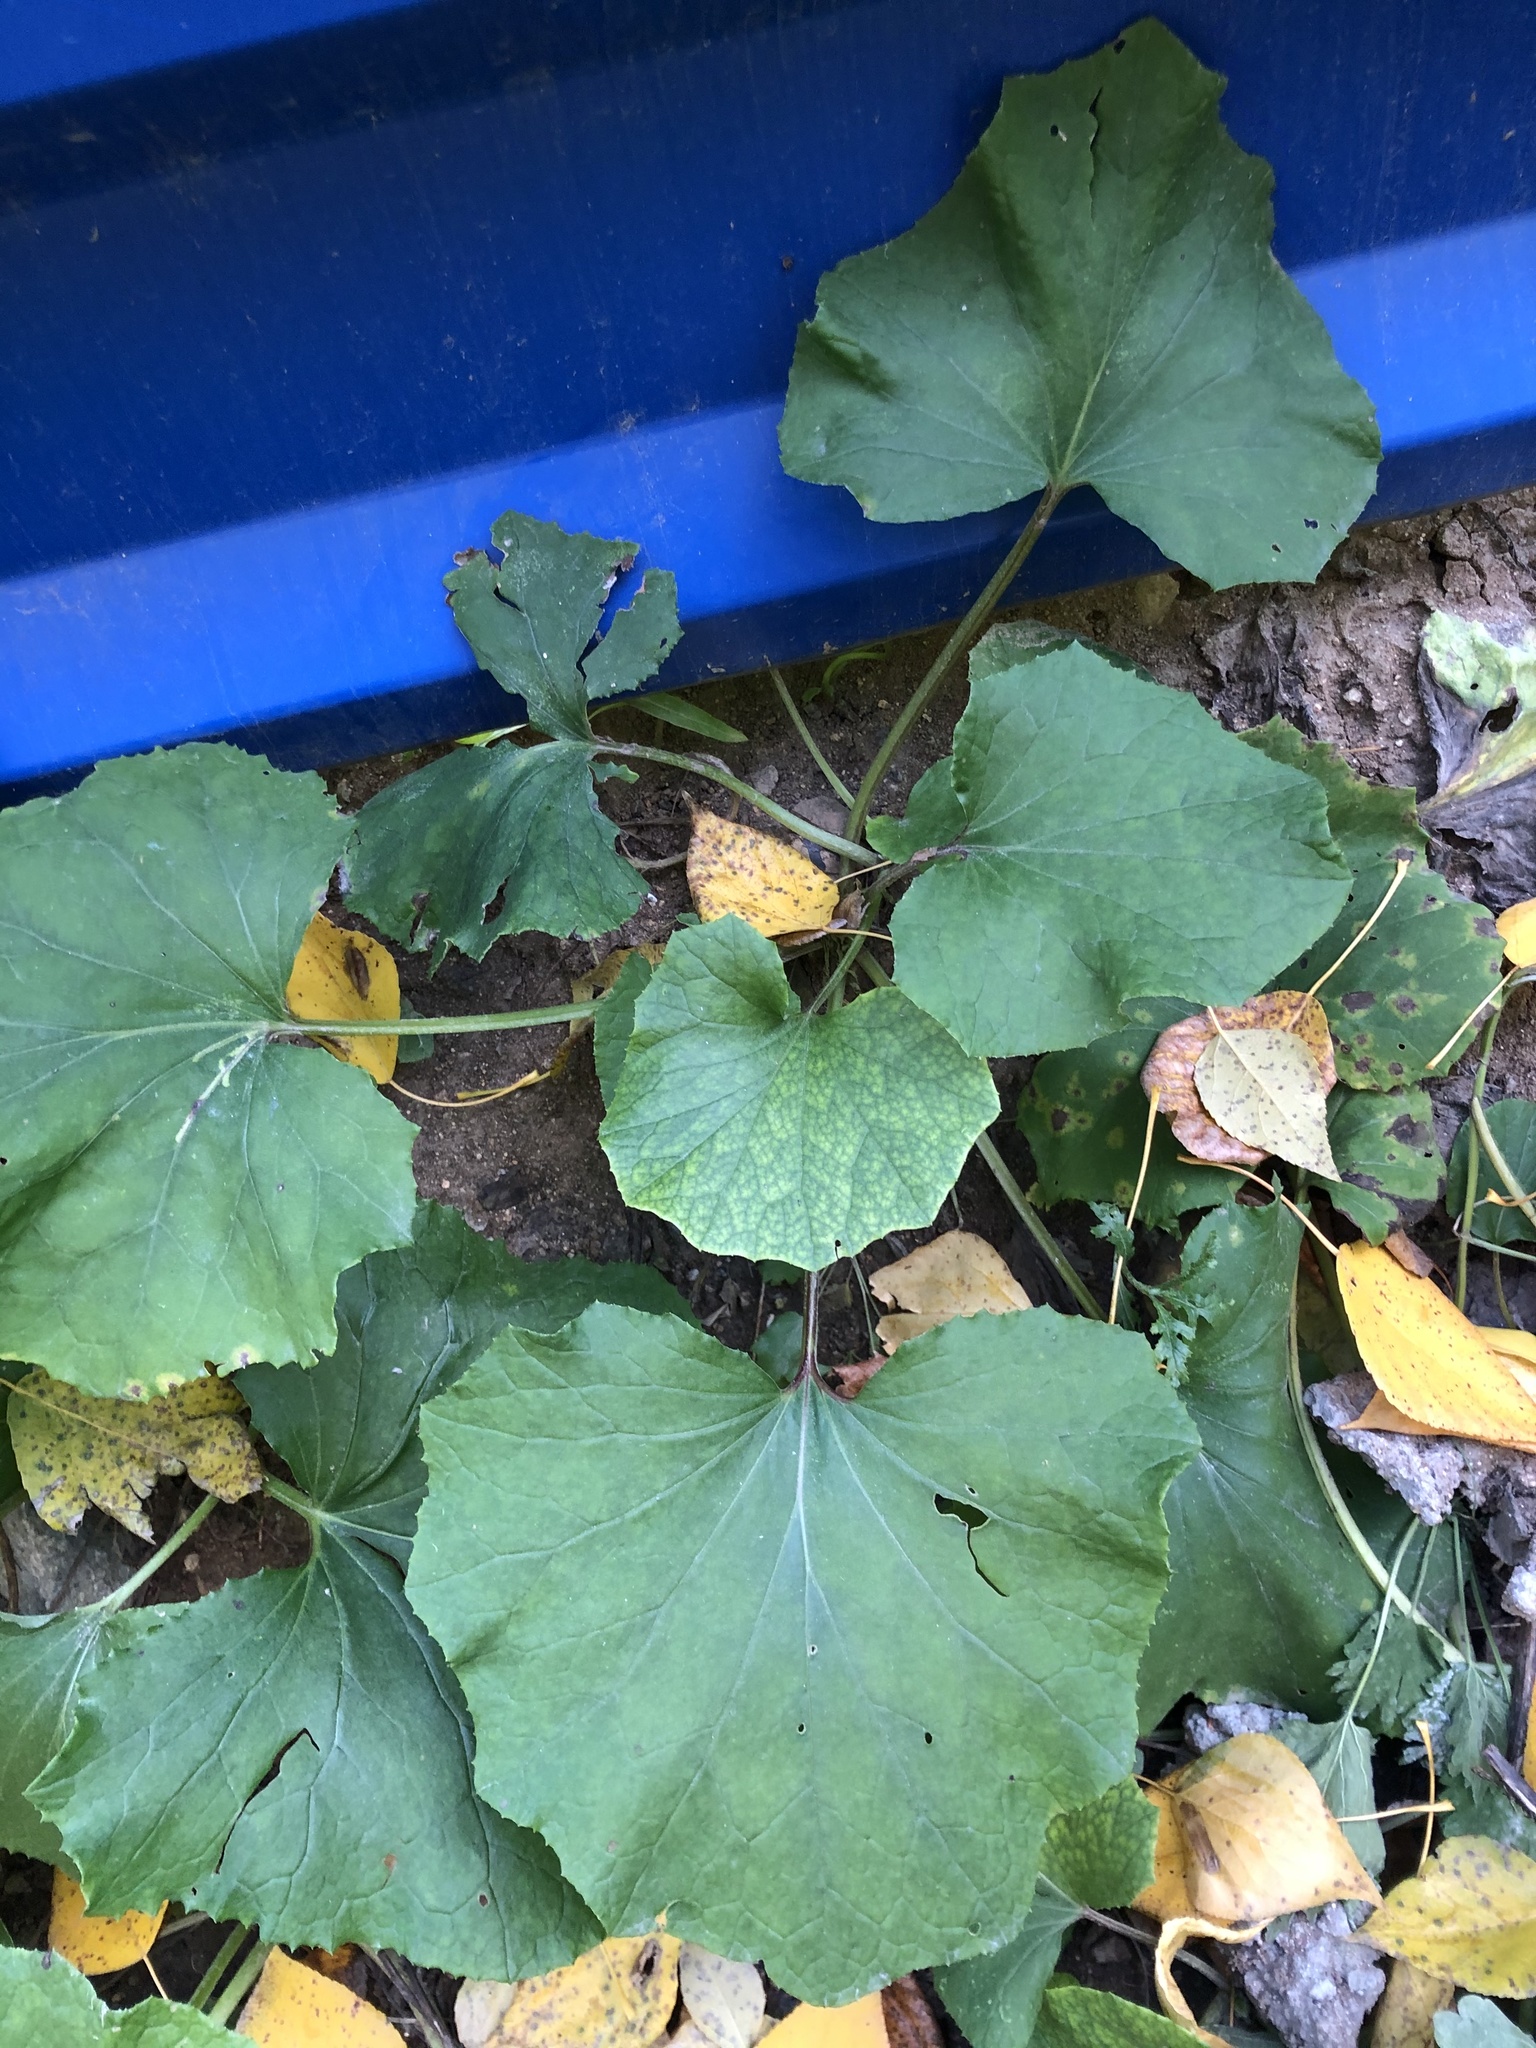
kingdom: Plantae
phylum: Tracheophyta
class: Magnoliopsida
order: Asterales
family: Asteraceae
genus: Tussilago
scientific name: Tussilago farfara
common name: Coltsfoot
